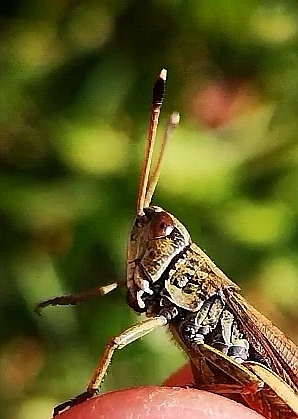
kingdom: Animalia
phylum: Arthropoda
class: Insecta
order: Orthoptera
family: Acrididae
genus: Gomphocerippus
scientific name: Gomphocerippus rufus
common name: Rufous grasshopper
